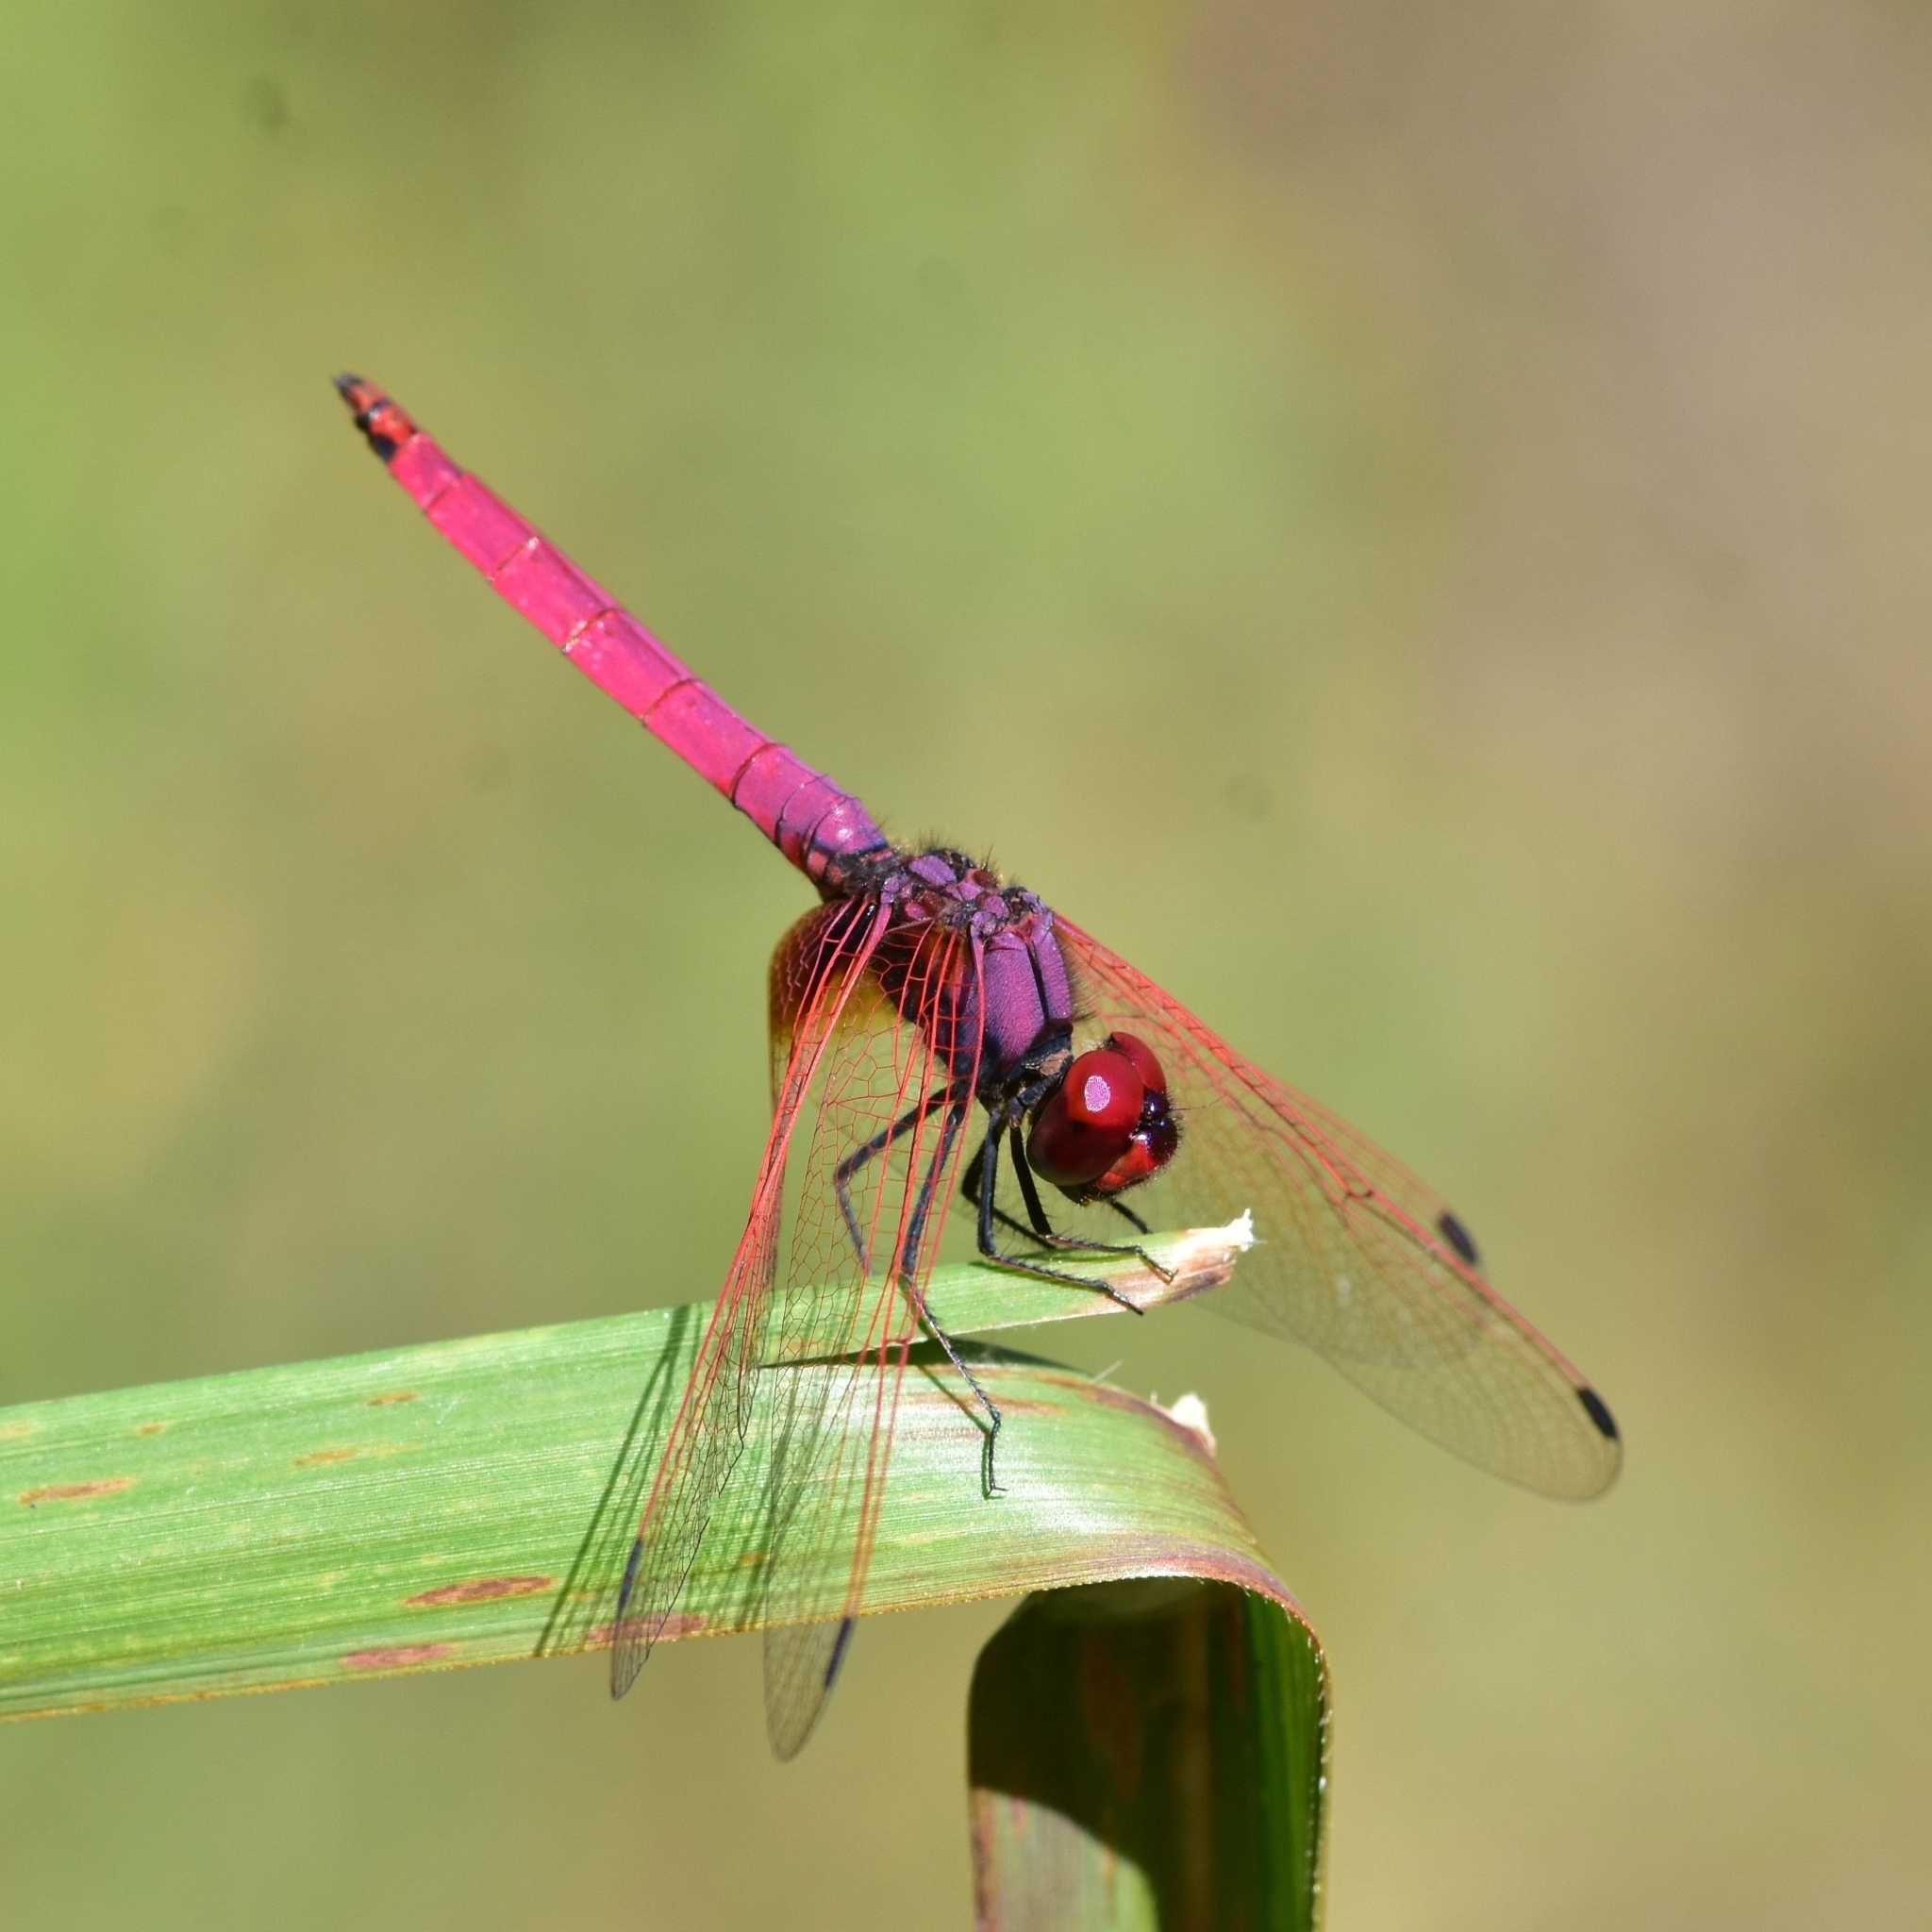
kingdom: Animalia
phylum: Arthropoda
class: Insecta
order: Odonata
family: Libellulidae
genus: Trithemis
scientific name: Trithemis aurora
